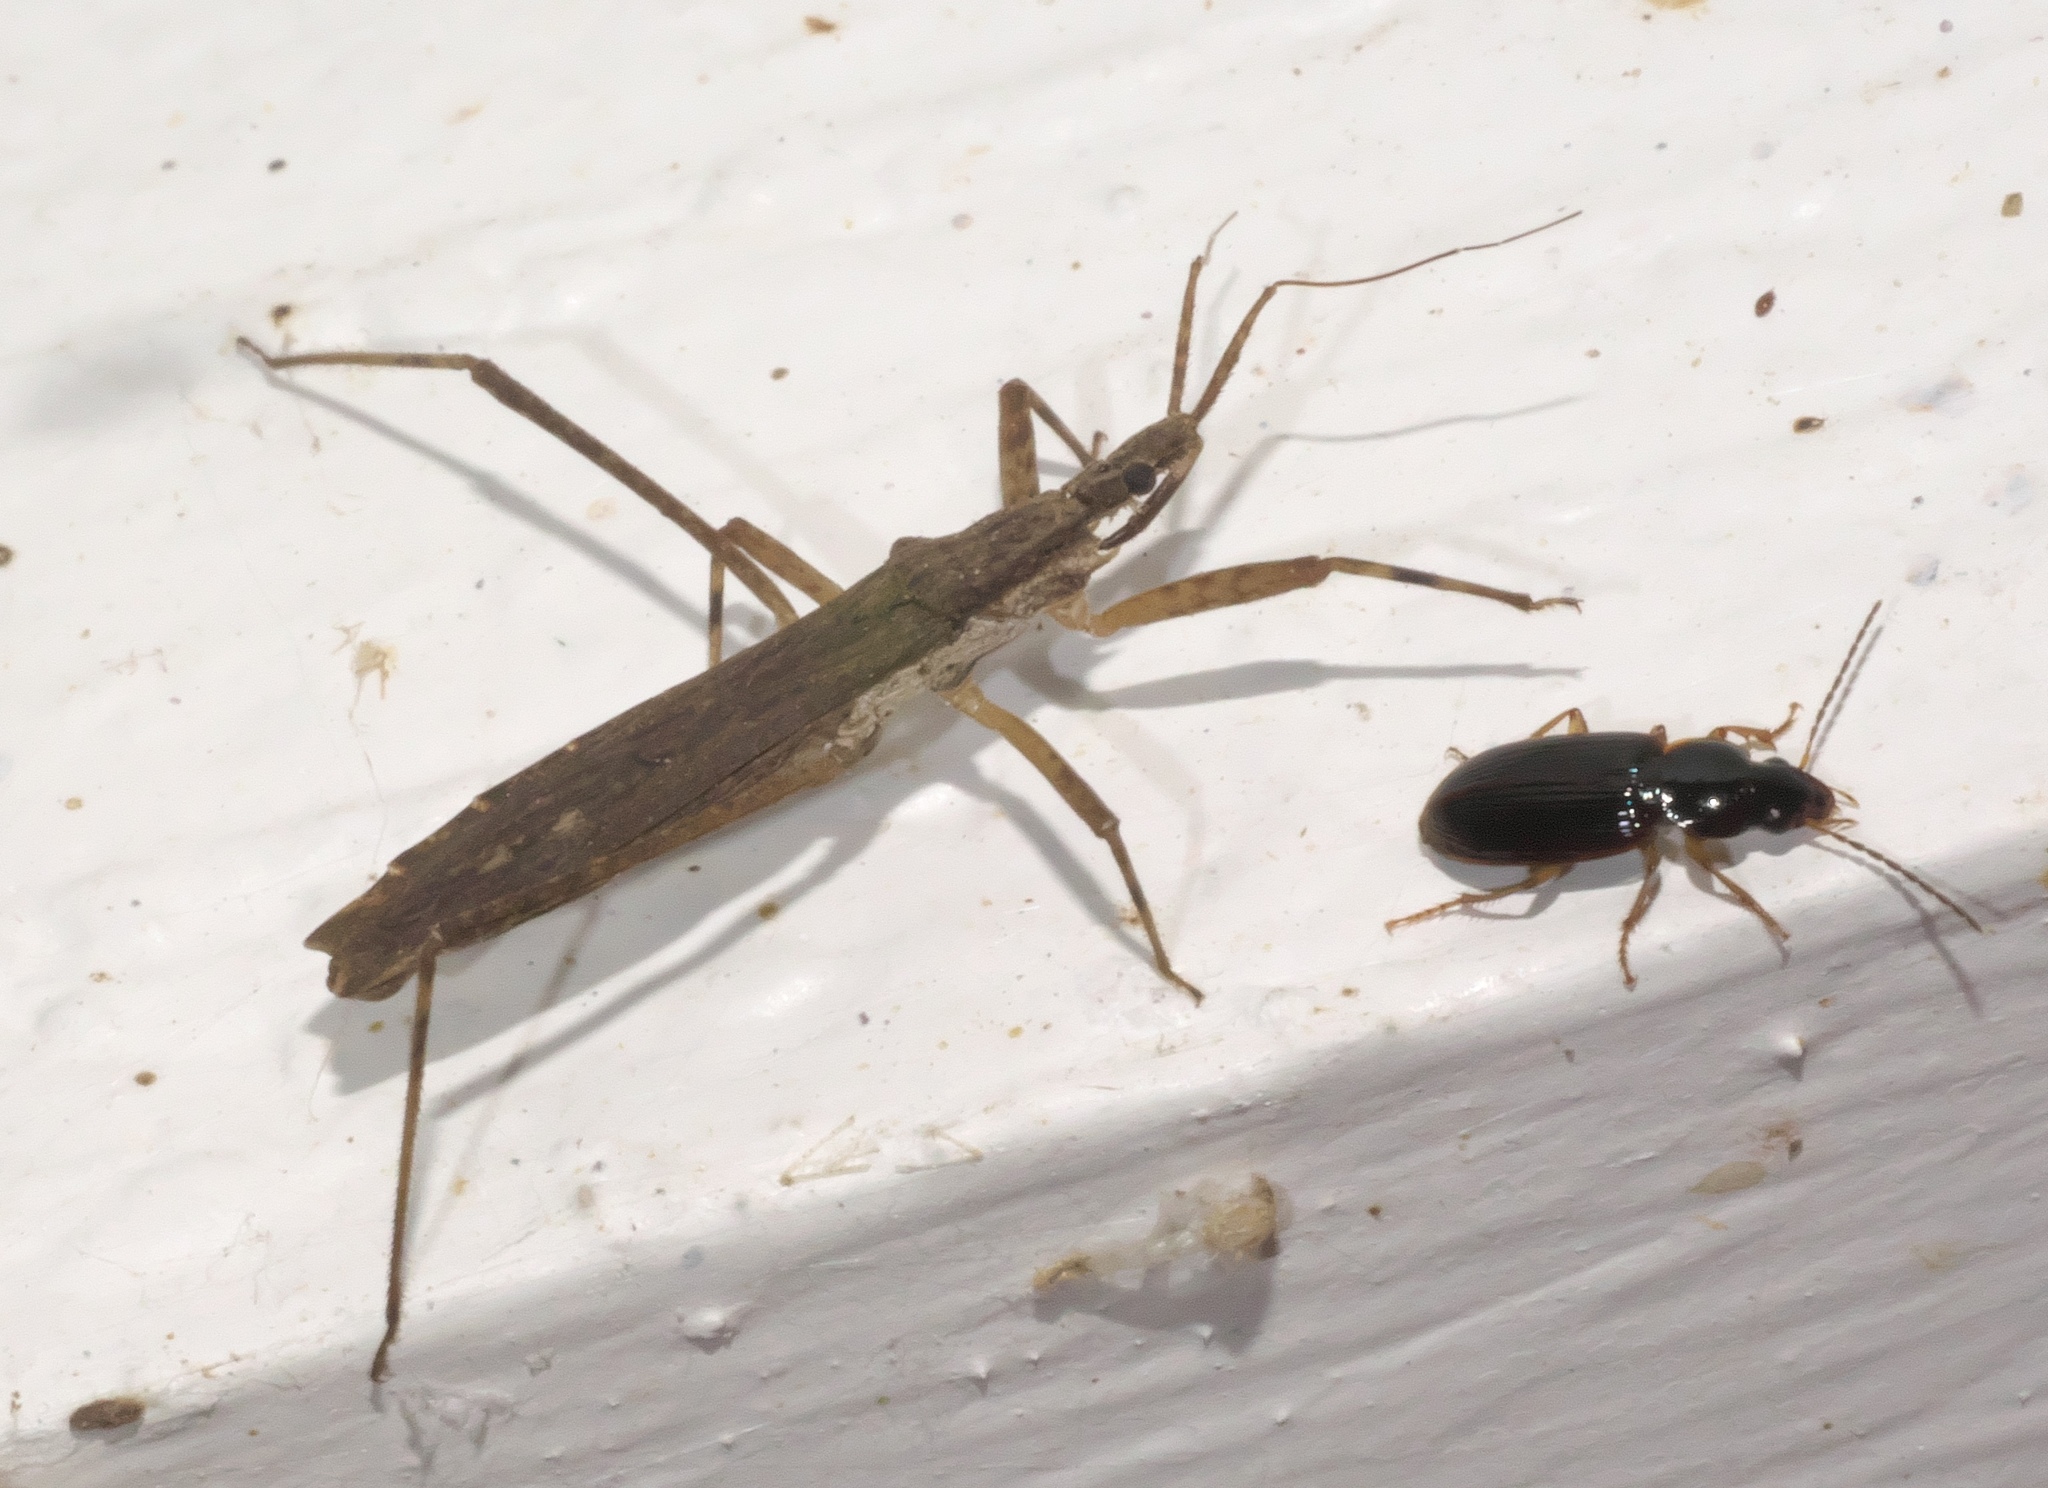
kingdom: Animalia
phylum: Arthropoda
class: Insecta
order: Hemiptera
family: Reduviidae
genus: Pygolampis
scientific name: Pygolampis pectoralis
